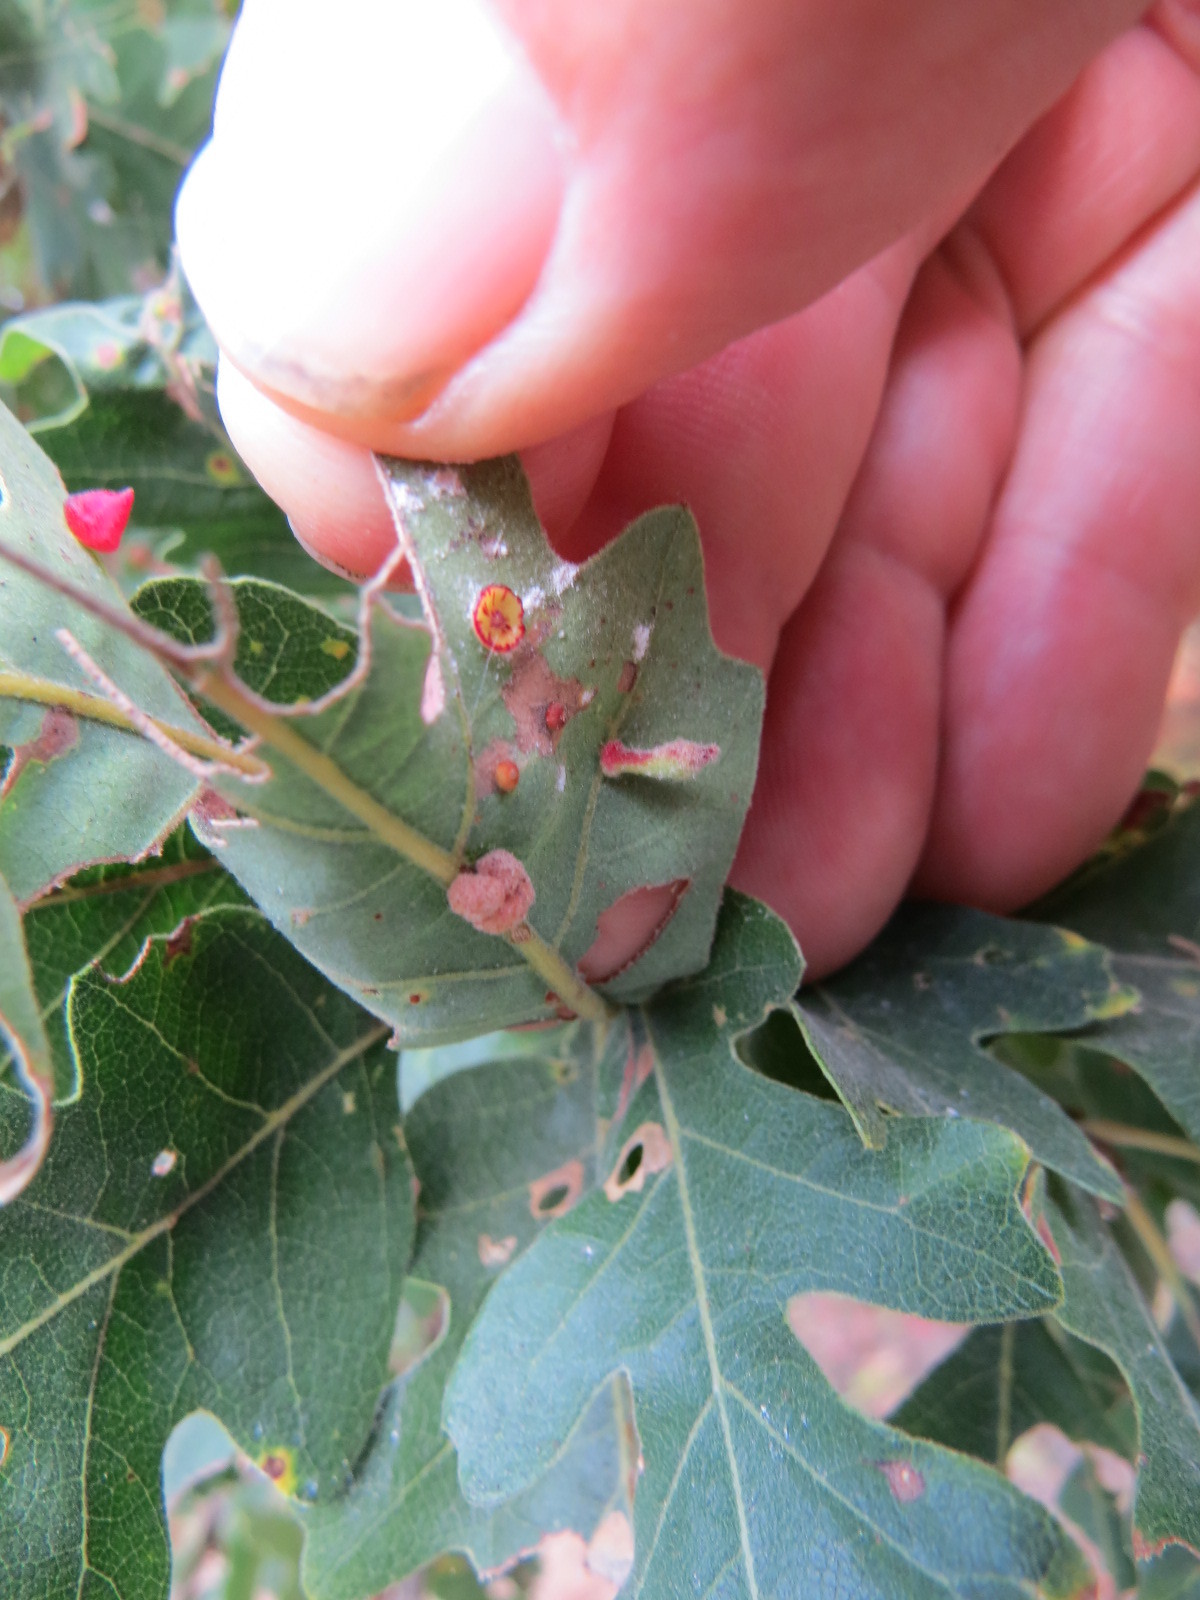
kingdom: Animalia
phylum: Arthropoda
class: Insecta
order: Hymenoptera
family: Cynipidae
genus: Atrusca
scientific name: Atrusca
